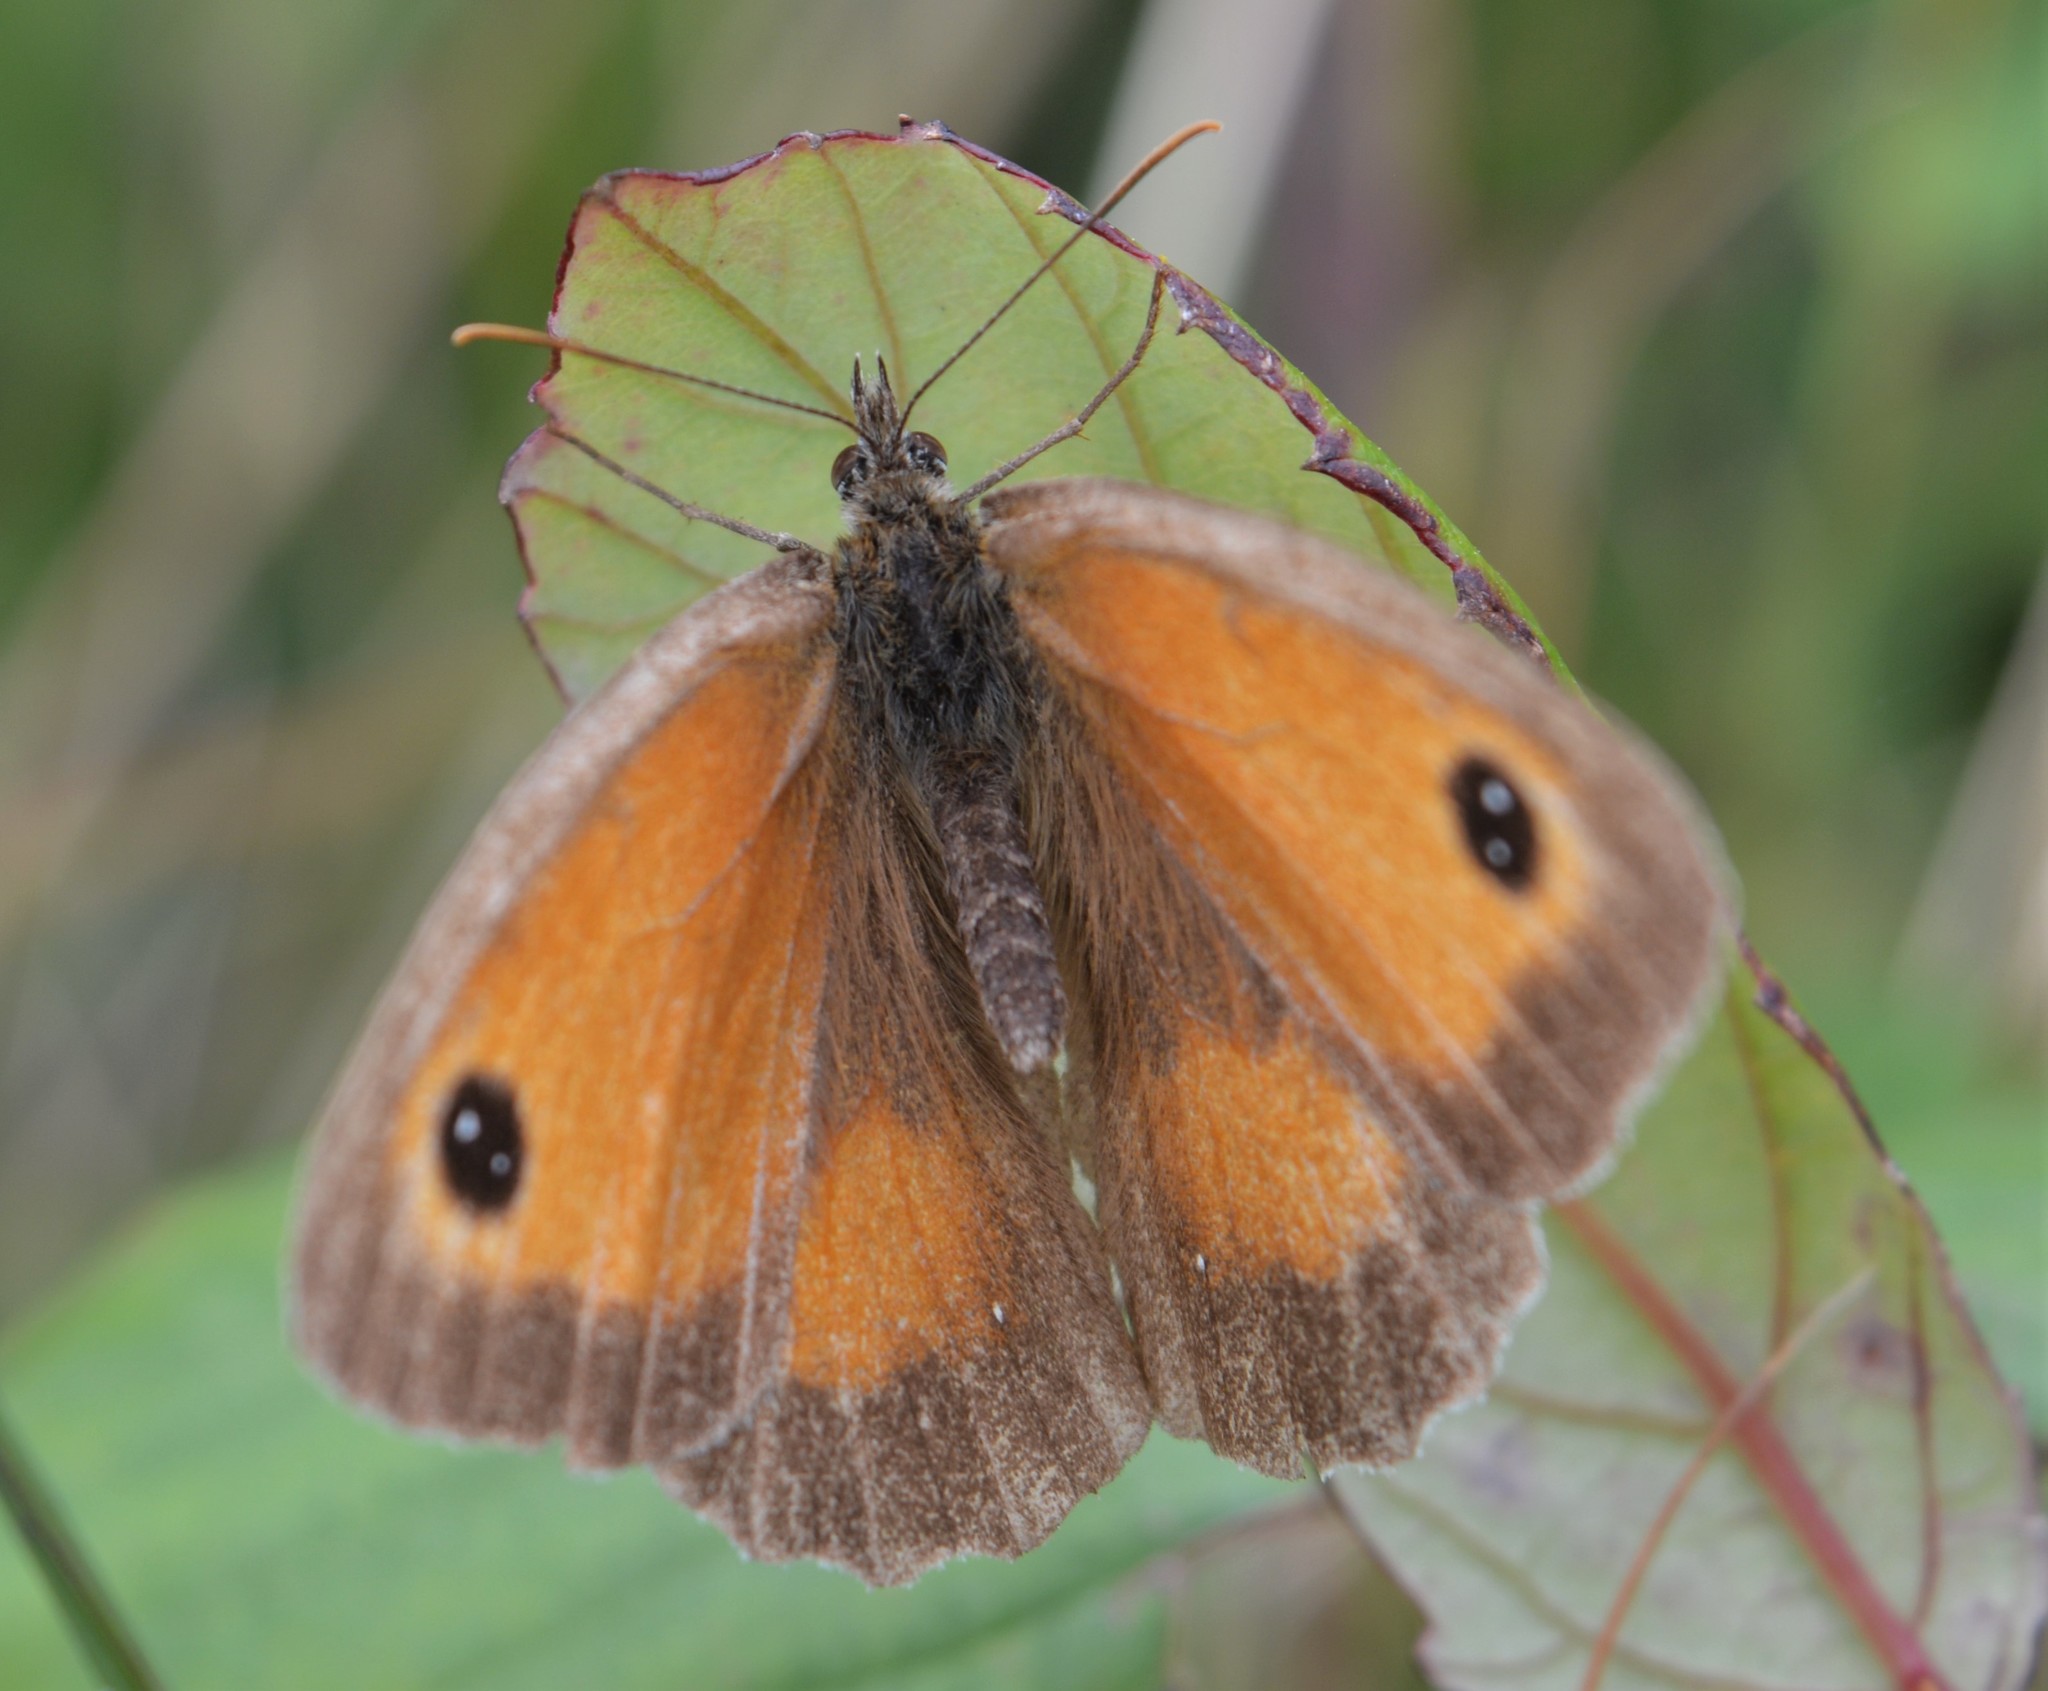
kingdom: Animalia
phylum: Arthropoda
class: Insecta
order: Lepidoptera
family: Nymphalidae
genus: Pyronia
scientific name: Pyronia tithonus
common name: Gatekeeper
